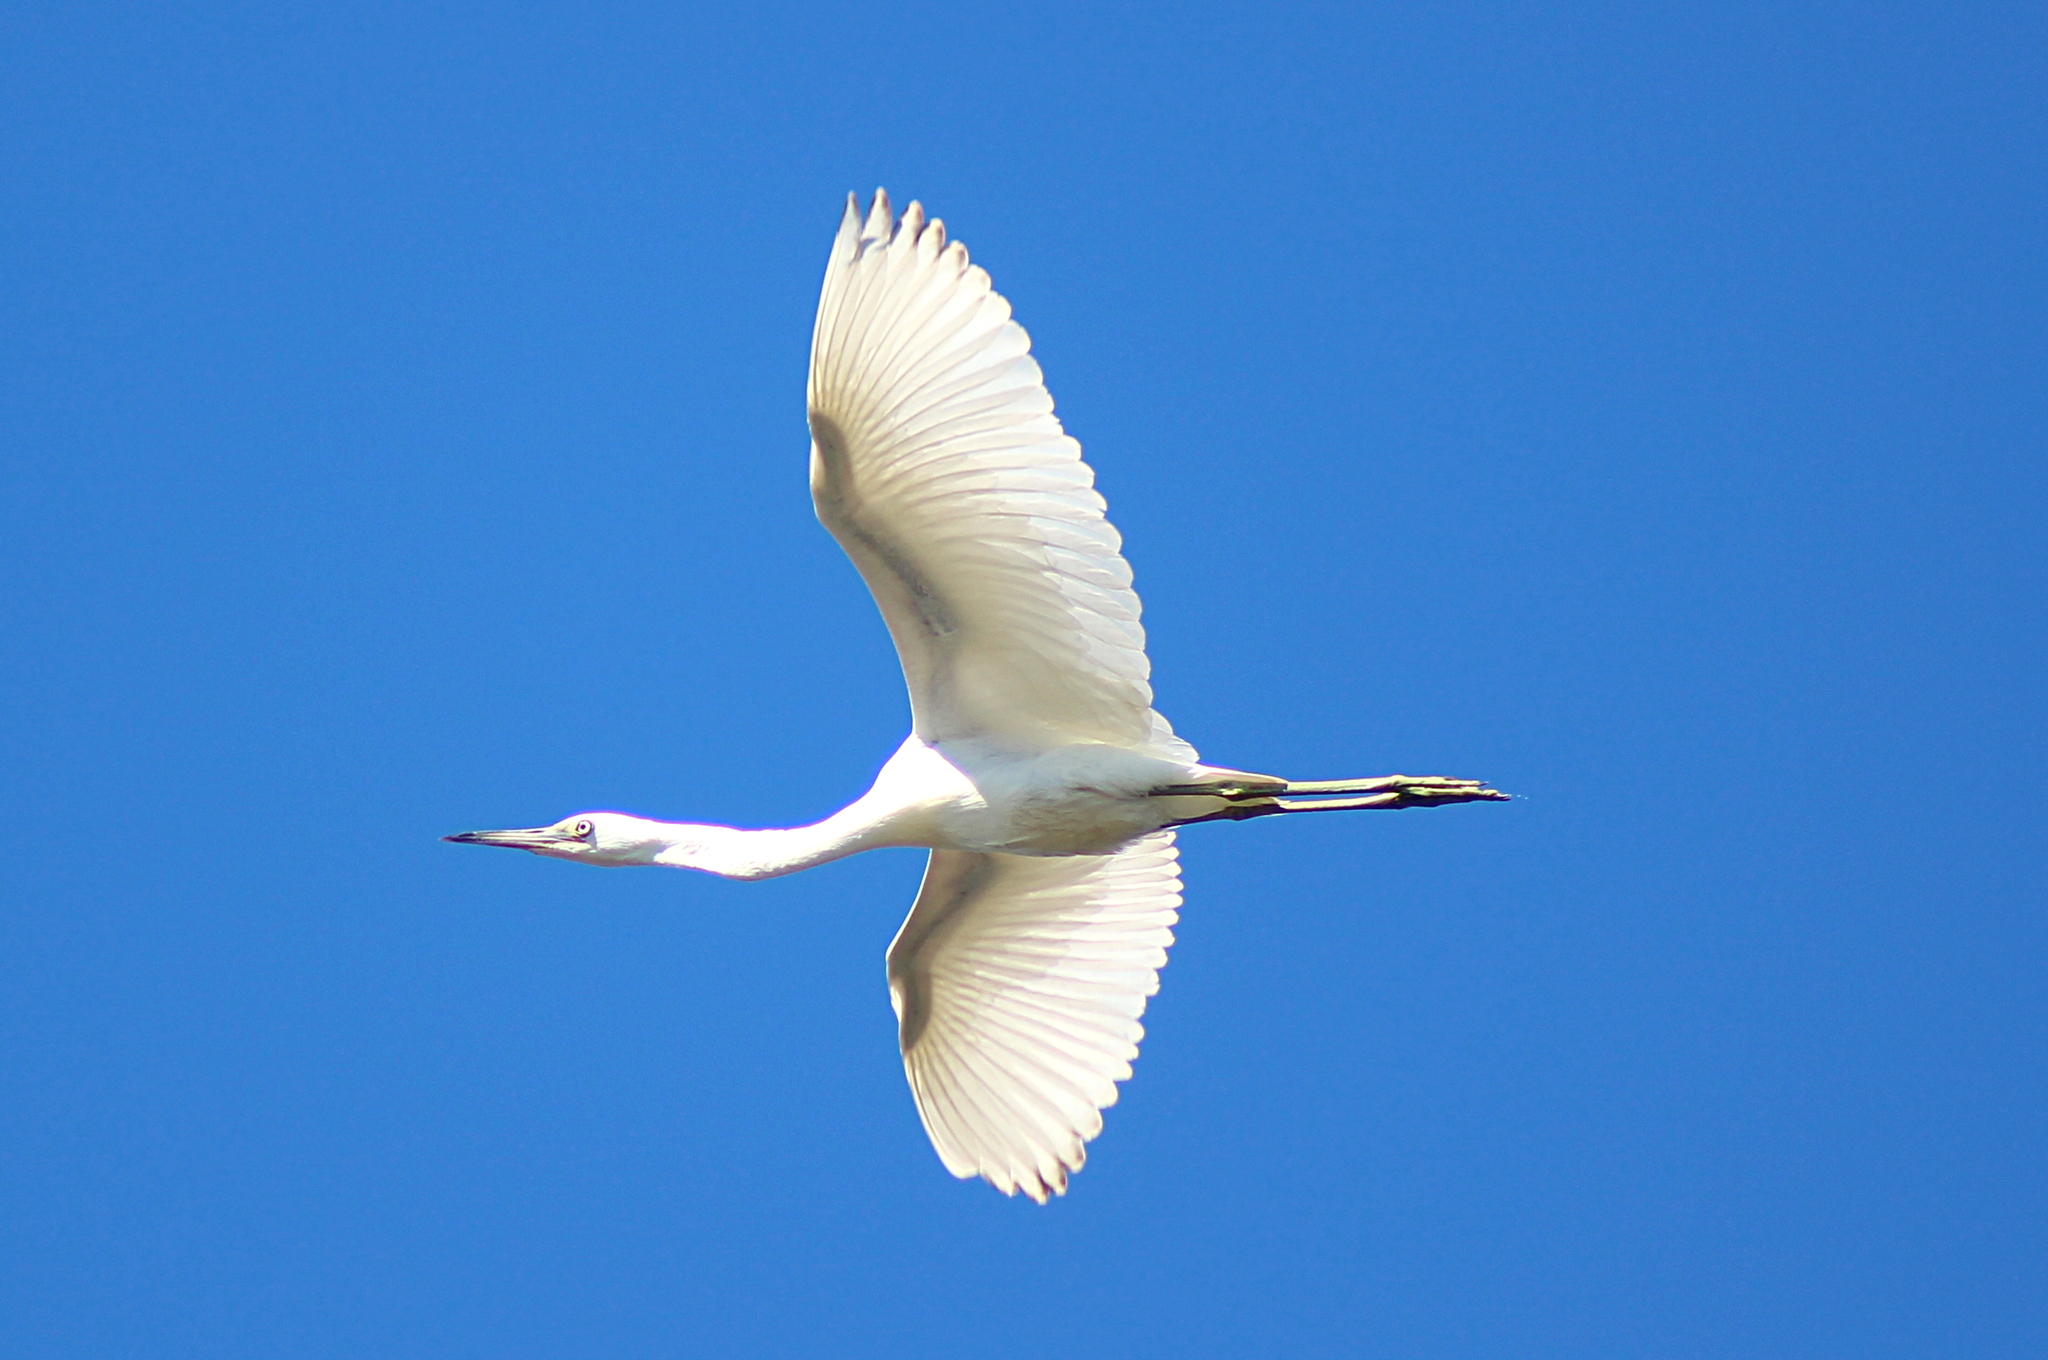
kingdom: Animalia
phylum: Chordata
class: Aves
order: Pelecaniformes
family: Ardeidae
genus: Egretta
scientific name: Egretta caerulea
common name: Little blue heron
